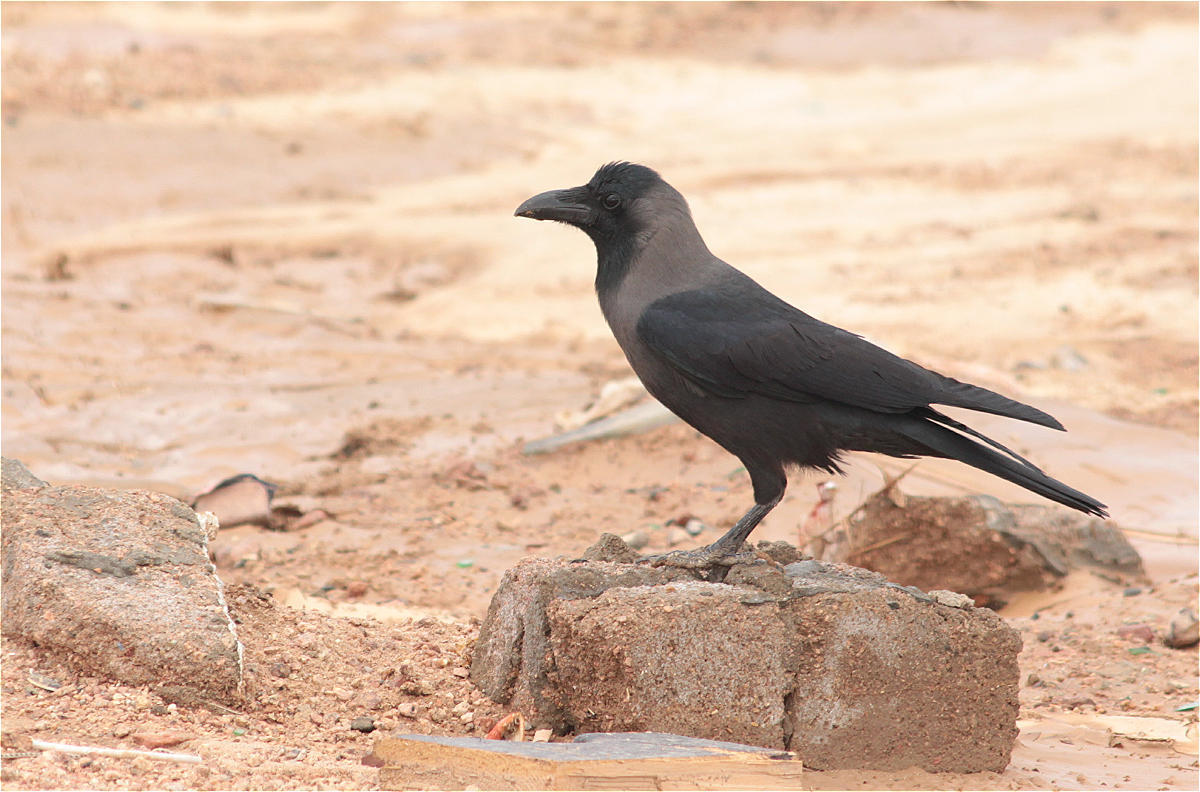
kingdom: Animalia
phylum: Chordata
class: Aves
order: Passeriformes
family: Corvidae
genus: Corvus
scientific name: Corvus splendens
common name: House crow
